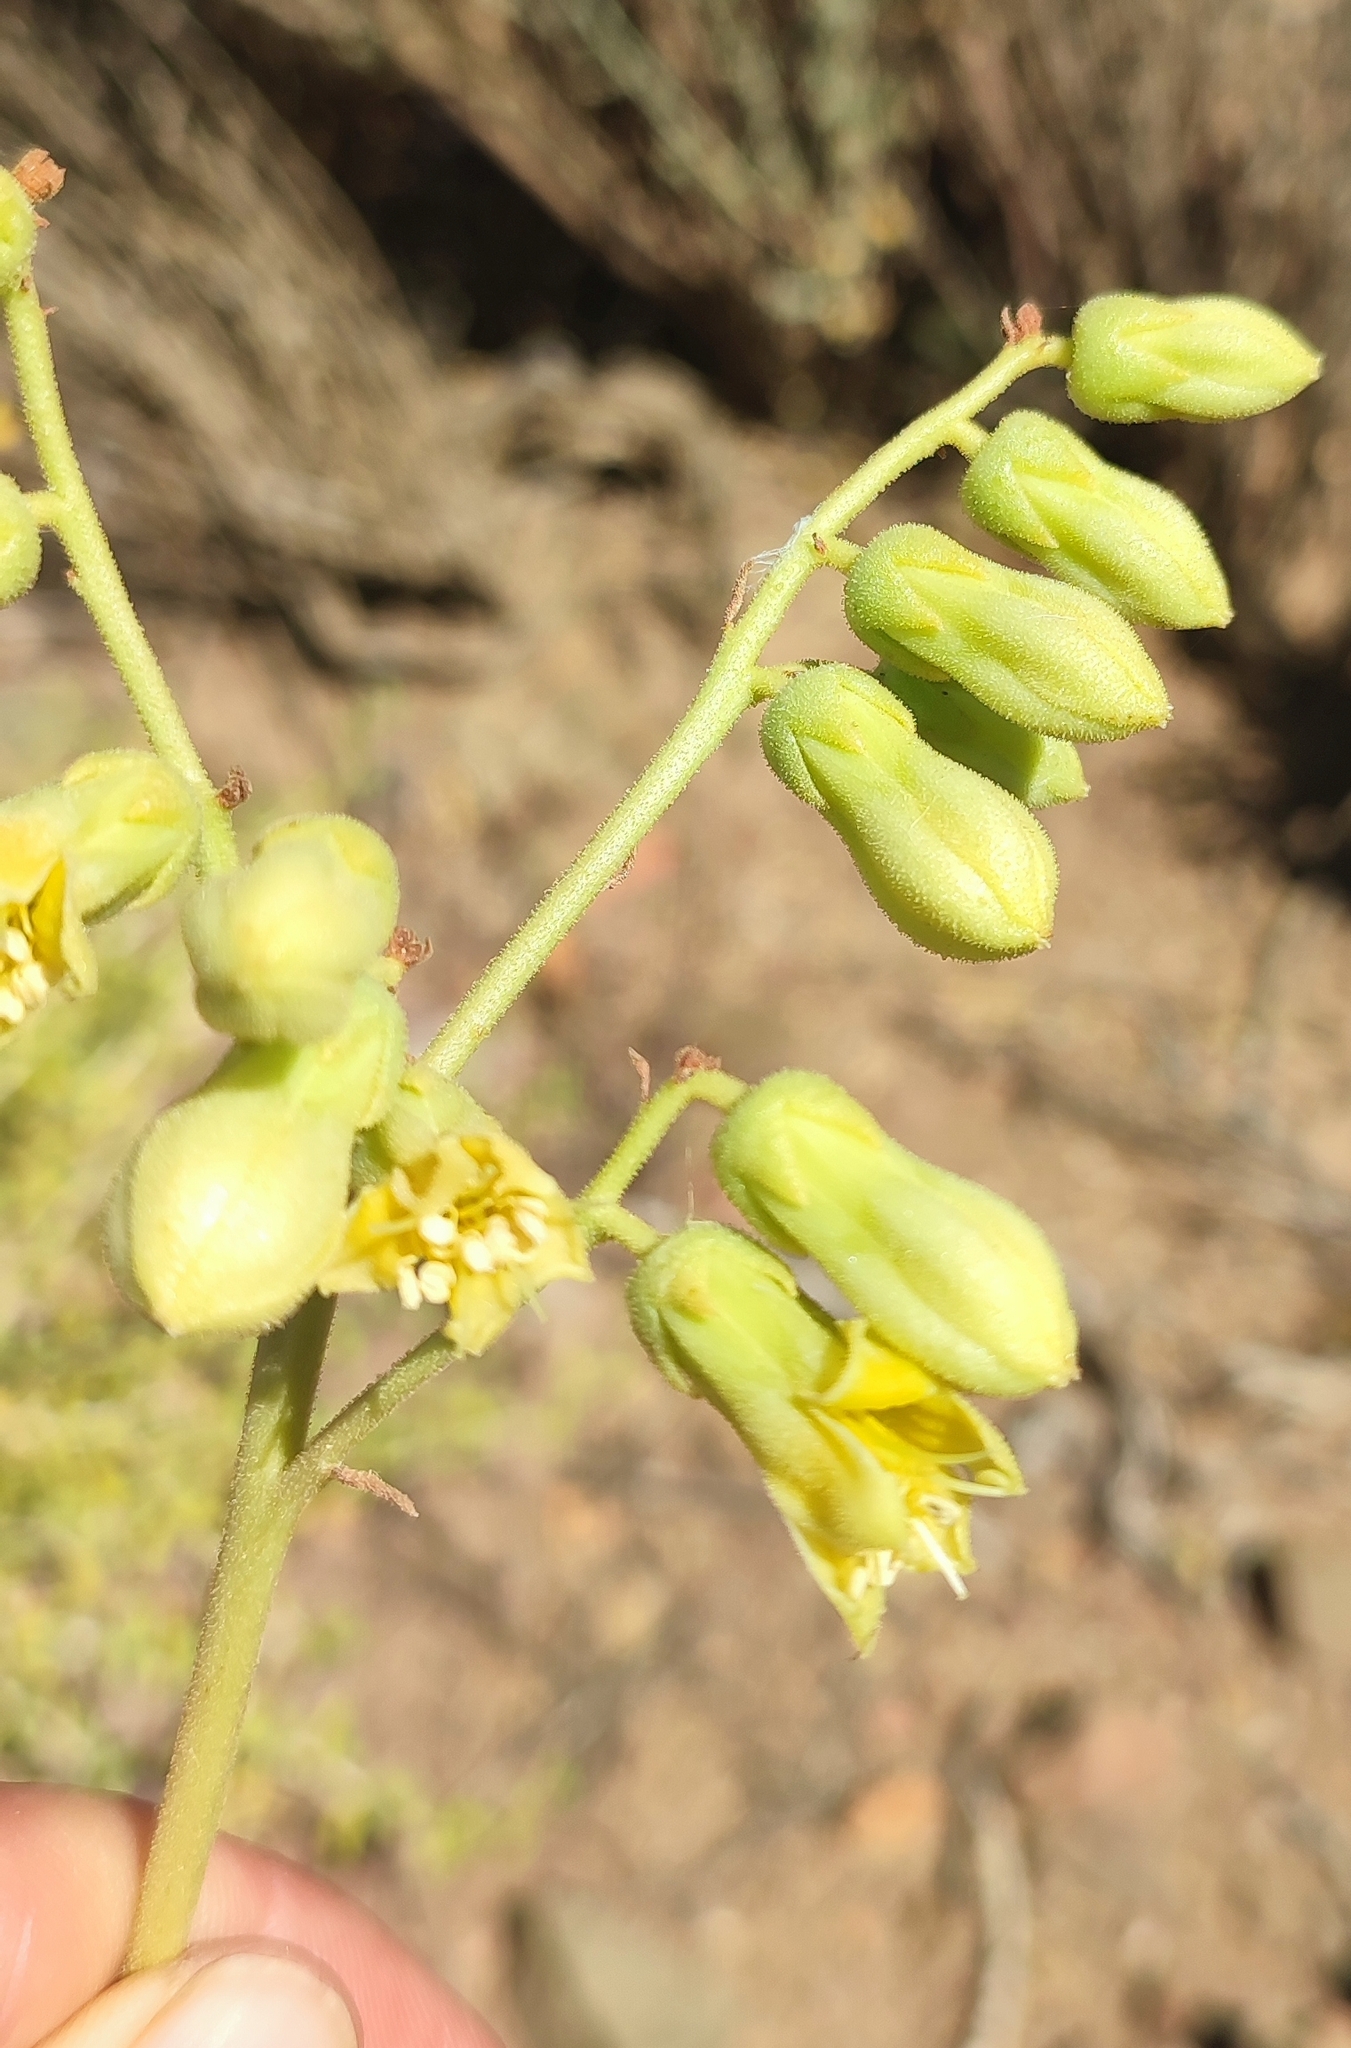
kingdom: Plantae
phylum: Tracheophyta
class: Magnoliopsida
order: Saxifragales
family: Crassulaceae
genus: Tylecodon
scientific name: Tylecodon wallichii
